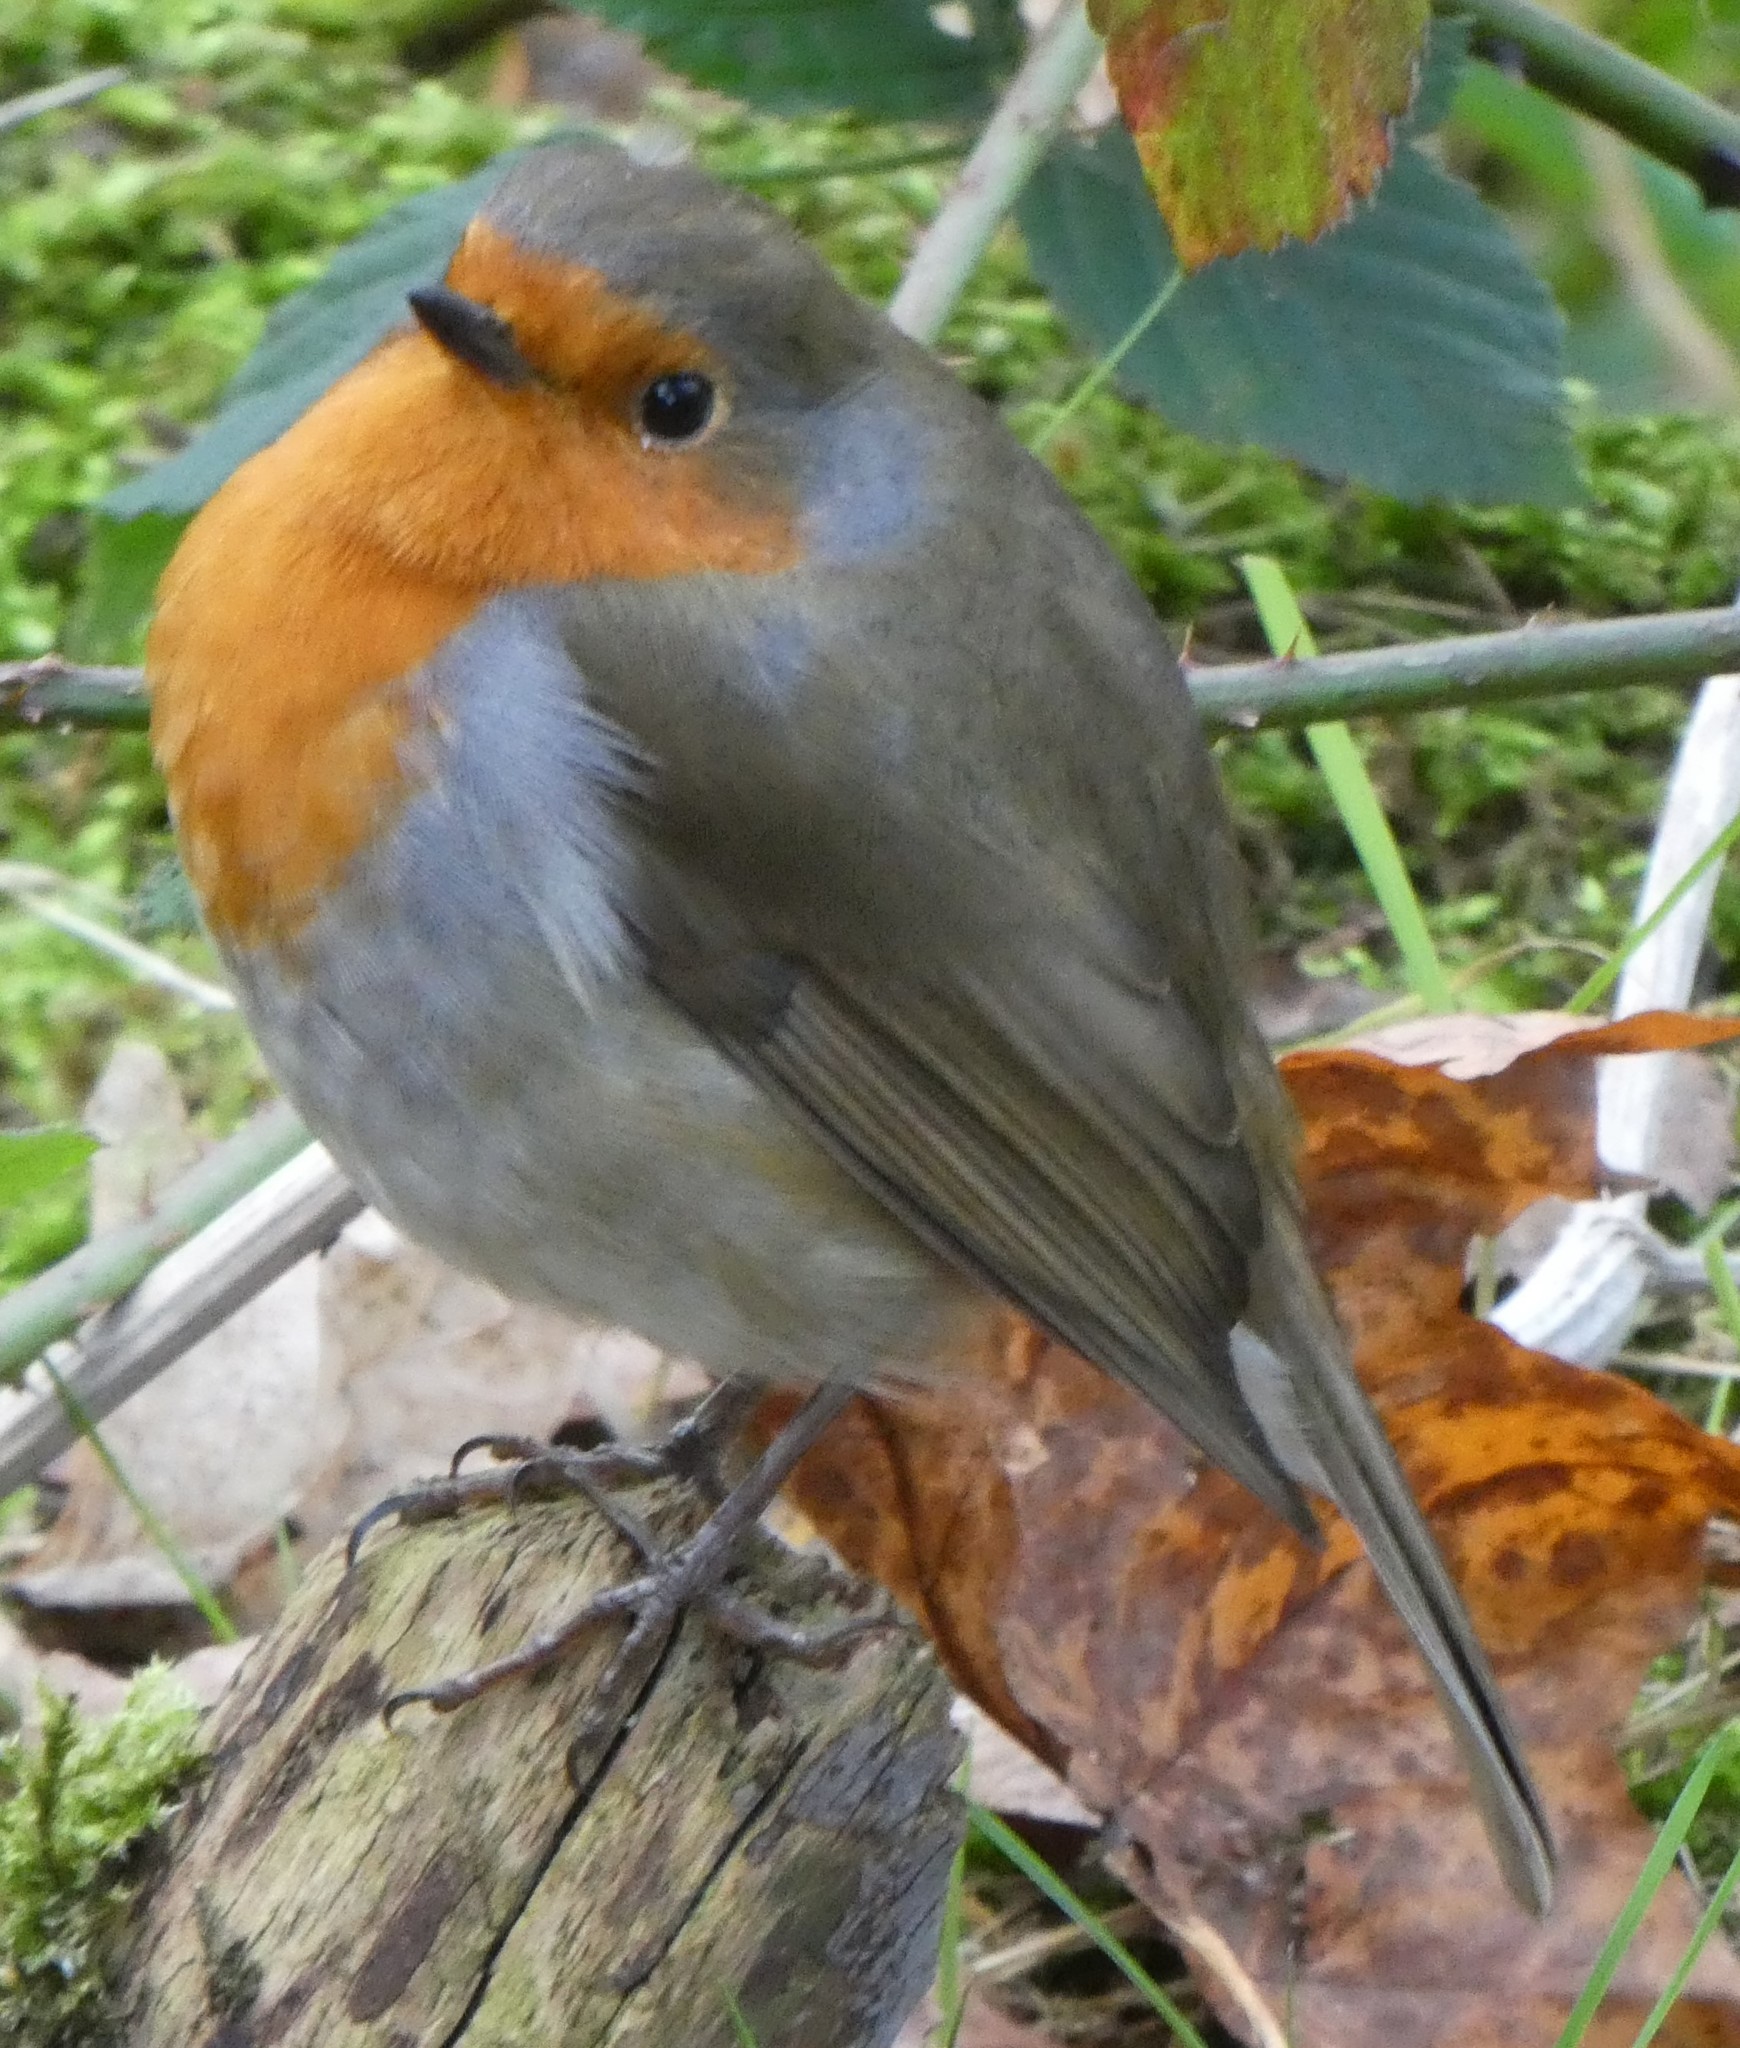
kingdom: Animalia
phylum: Chordata
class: Aves
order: Passeriformes
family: Muscicapidae
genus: Erithacus
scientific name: Erithacus rubecula
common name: European robin
